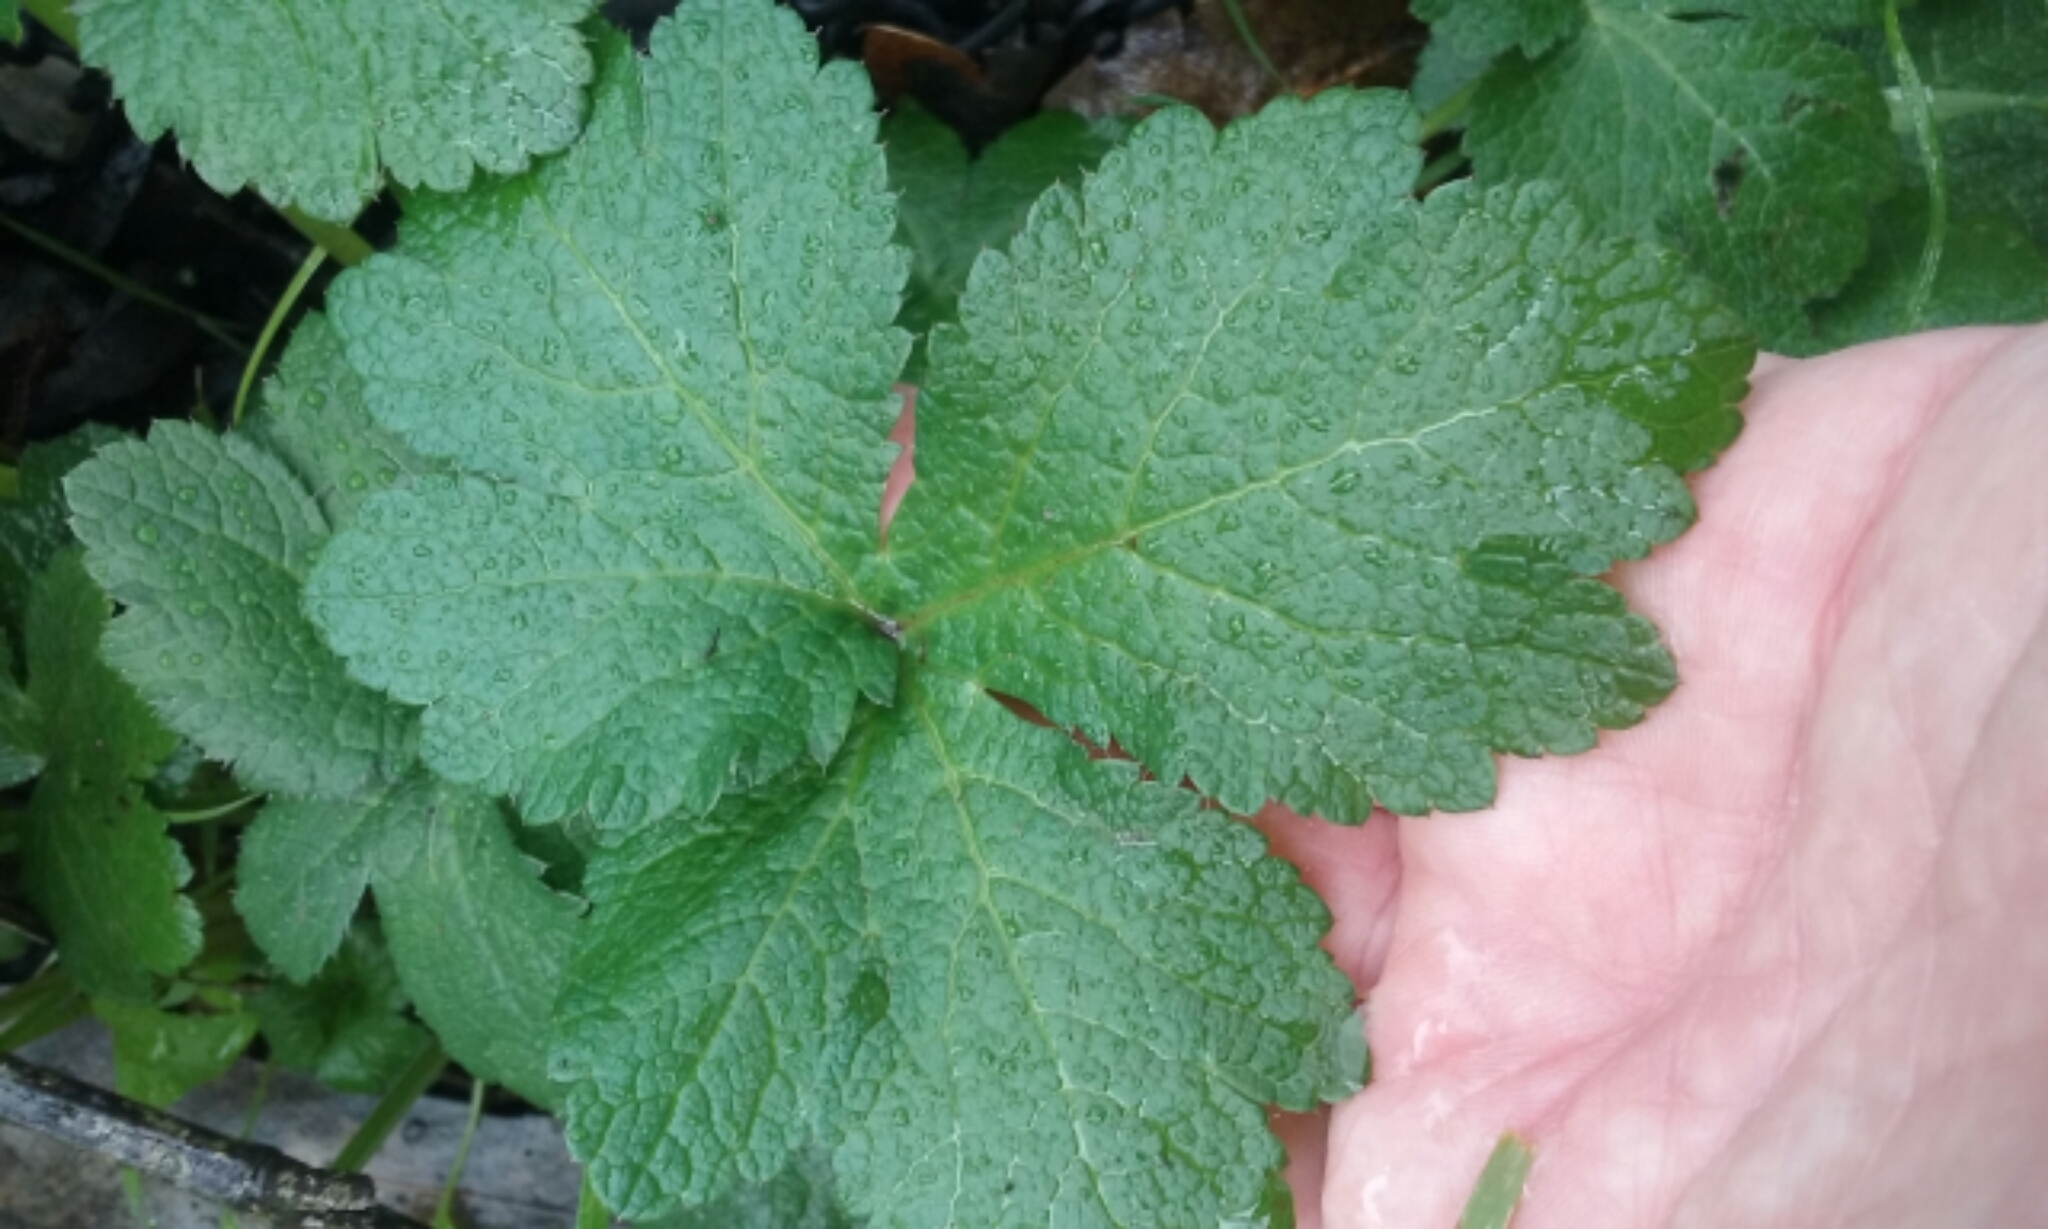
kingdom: Plantae
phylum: Tracheophyta
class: Magnoliopsida
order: Apiales
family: Apiaceae
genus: Sanicula
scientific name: Sanicula crassicaulis
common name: Western snakeroot
